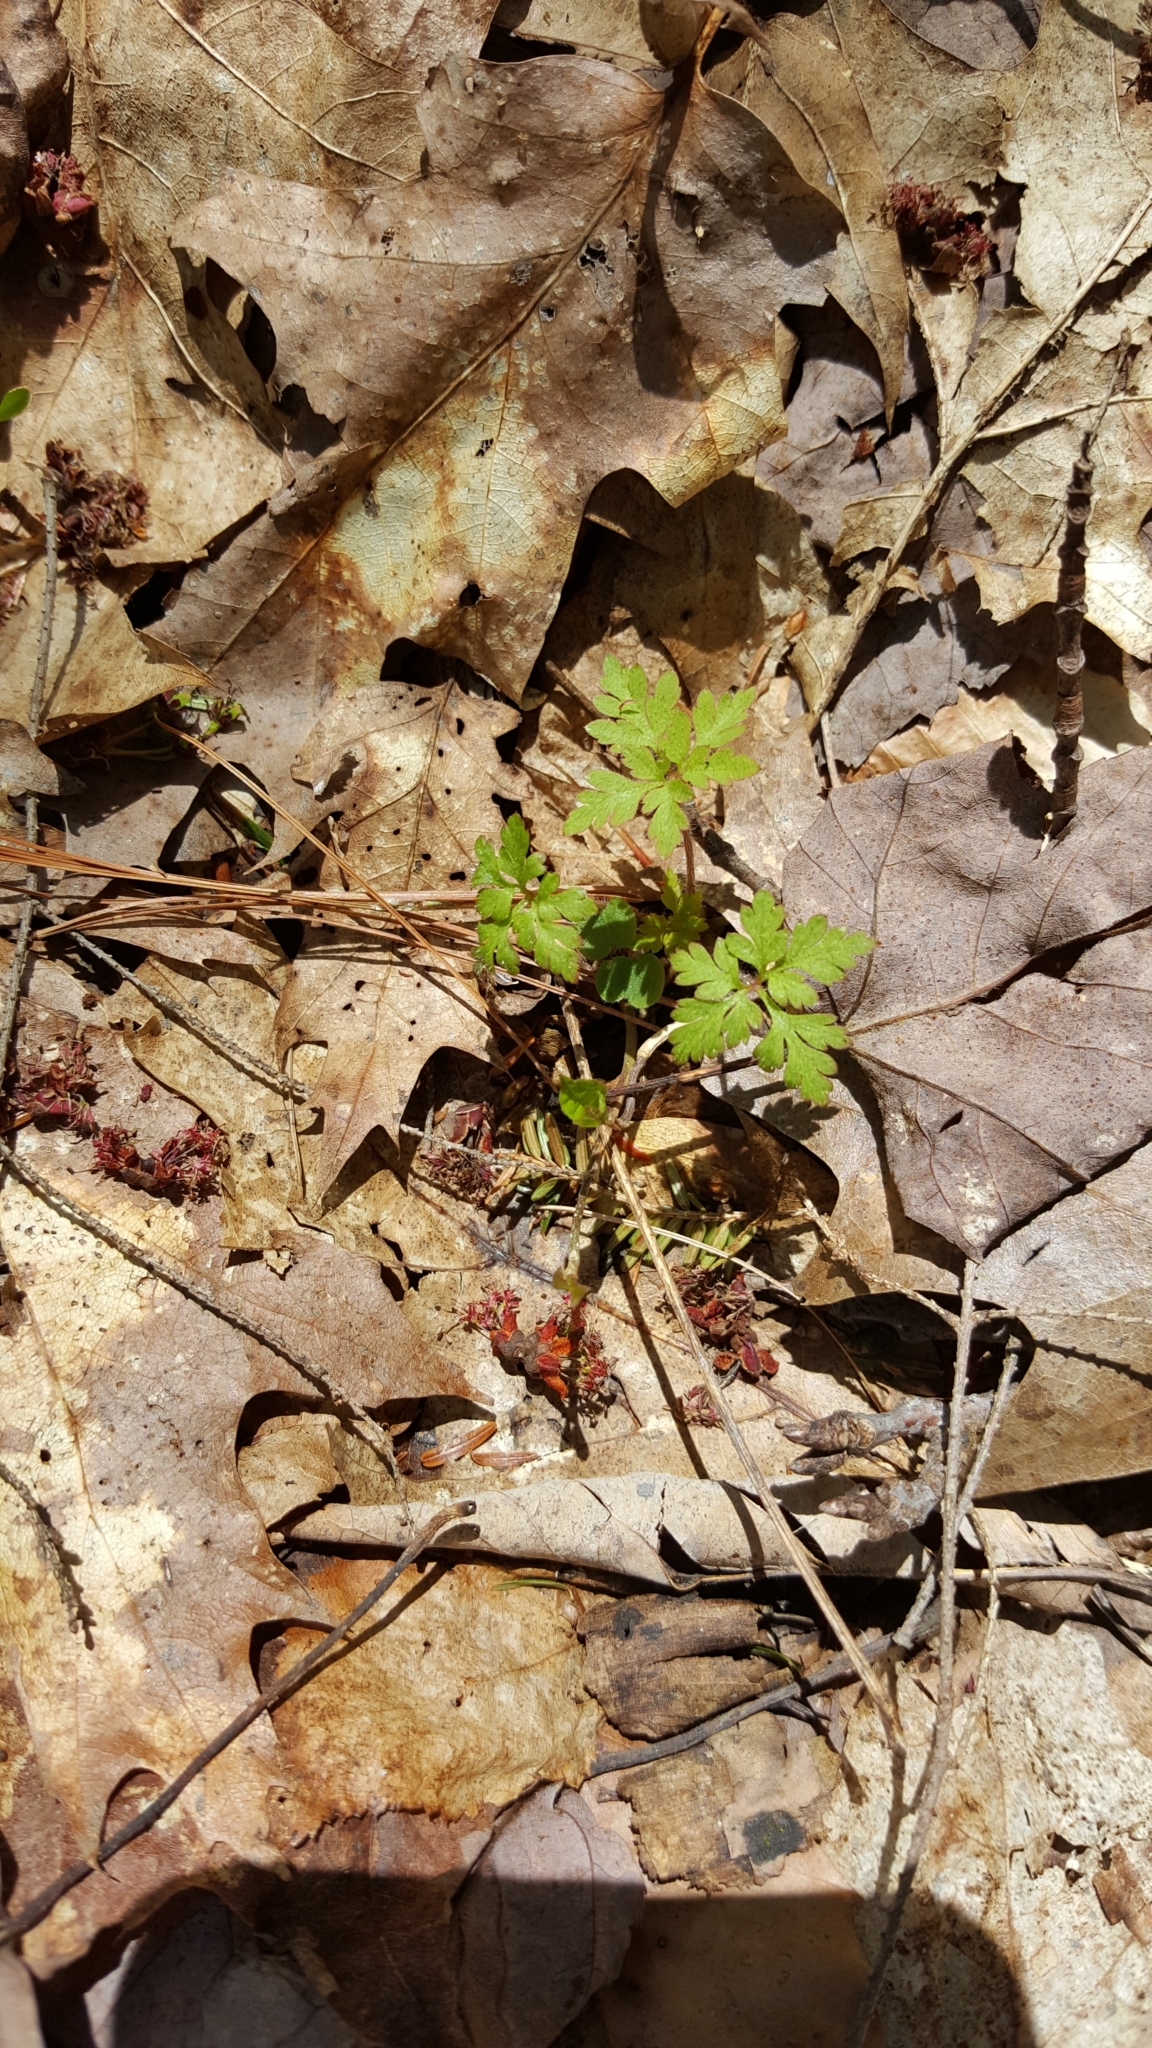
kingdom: Plantae
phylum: Tracheophyta
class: Magnoliopsida
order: Geraniales
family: Geraniaceae
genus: Geranium
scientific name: Geranium robertianum
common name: Herb-robert
